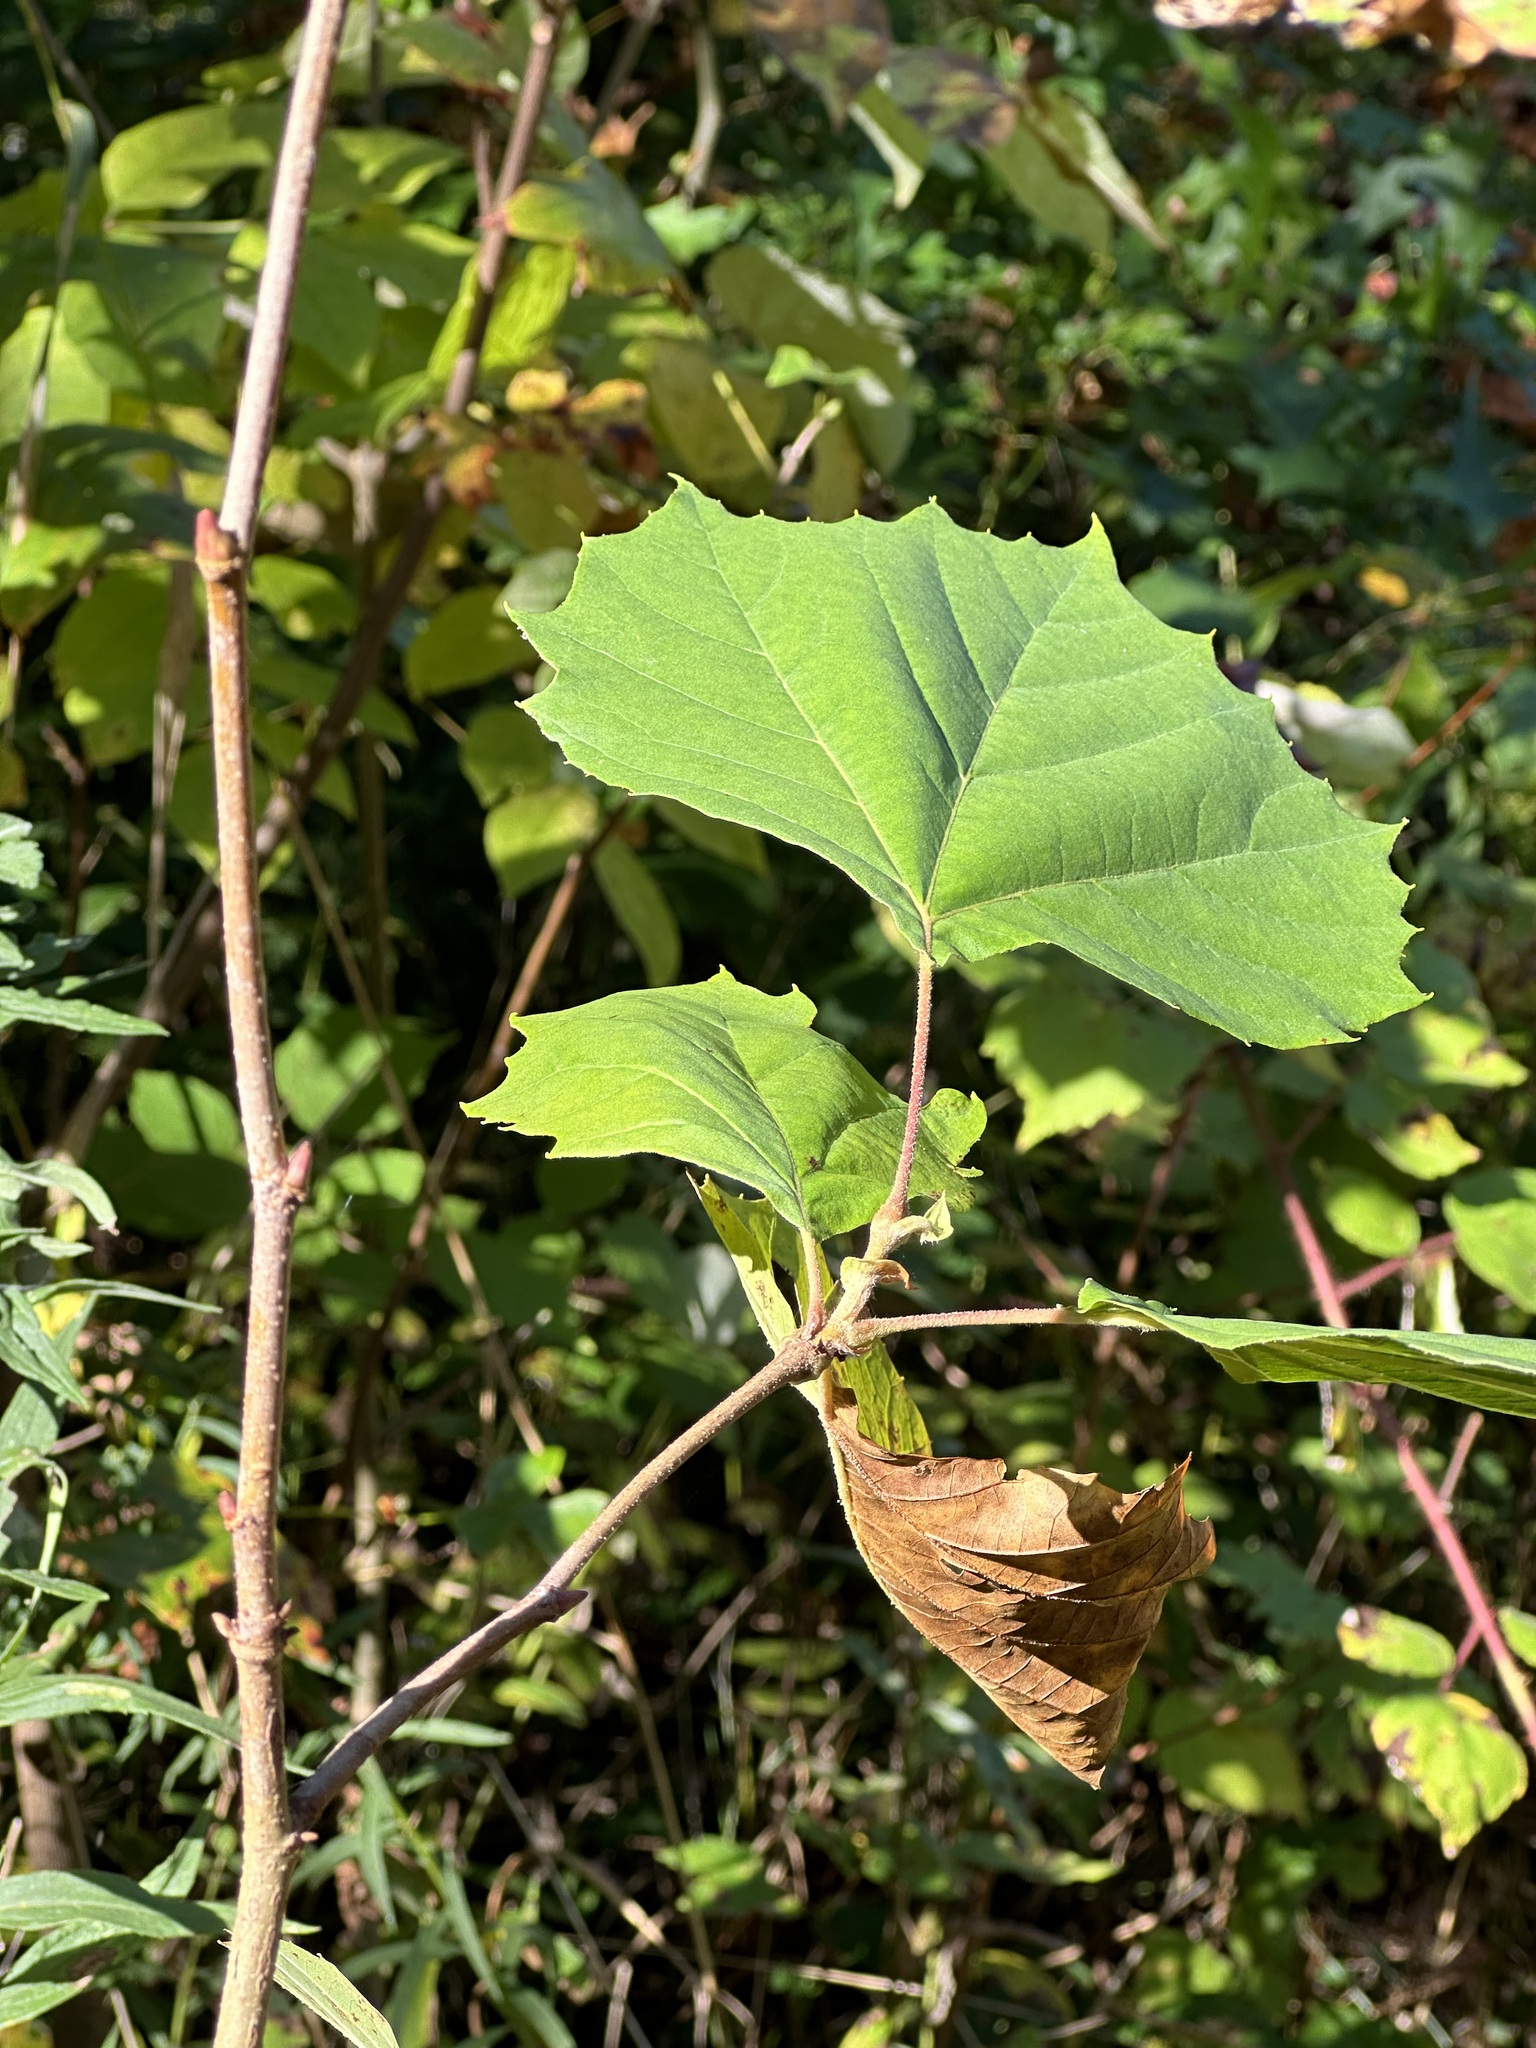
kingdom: Plantae
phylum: Tracheophyta
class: Magnoliopsida
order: Proteales
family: Platanaceae
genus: Platanus
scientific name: Platanus occidentalis
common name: American sycamore
